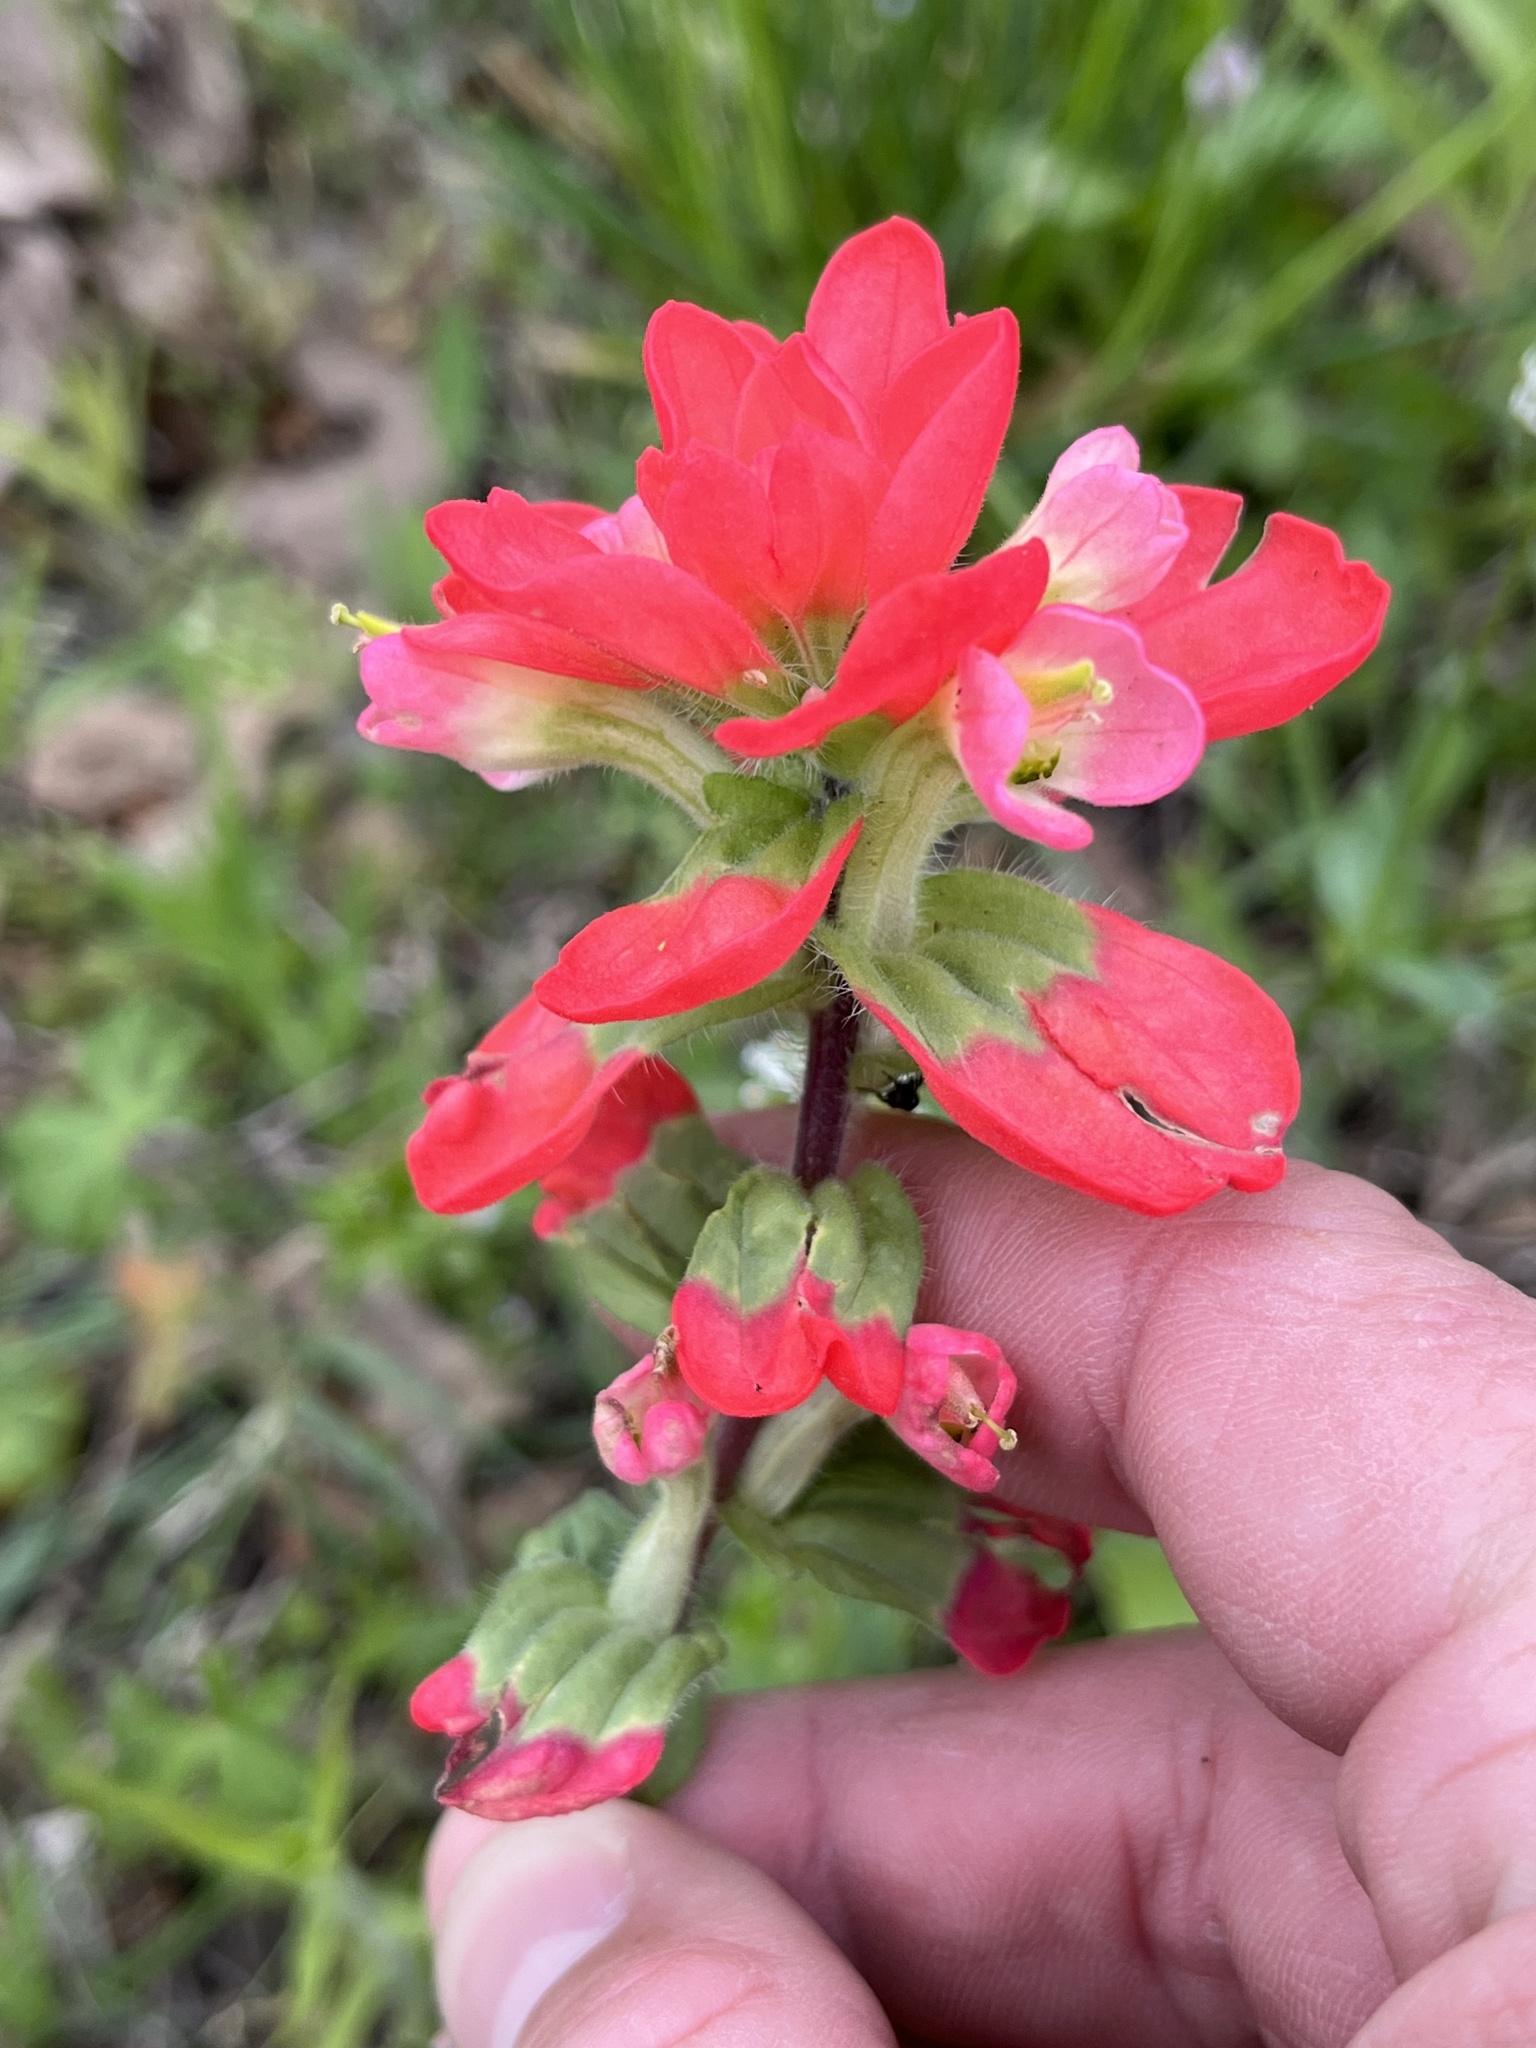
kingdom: Plantae
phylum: Tracheophyta
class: Magnoliopsida
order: Lamiales
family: Orobanchaceae
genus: Castilleja
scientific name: Castilleja indivisa
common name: Texas paintbrush
